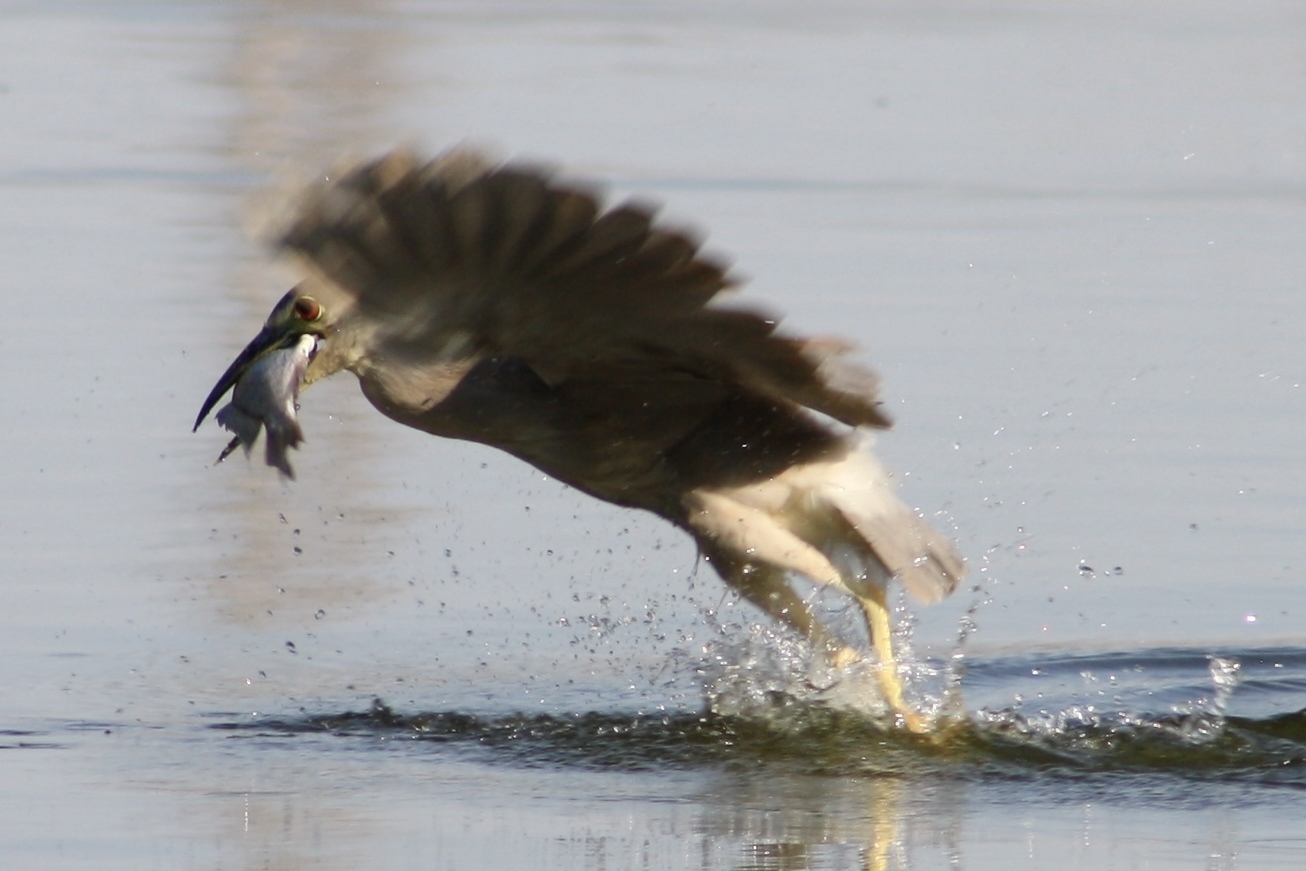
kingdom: Animalia
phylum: Chordata
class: Aves
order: Pelecaniformes
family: Ardeidae
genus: Nycticorax
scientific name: Nycticorax nycticorax
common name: Black-crowned night heron
